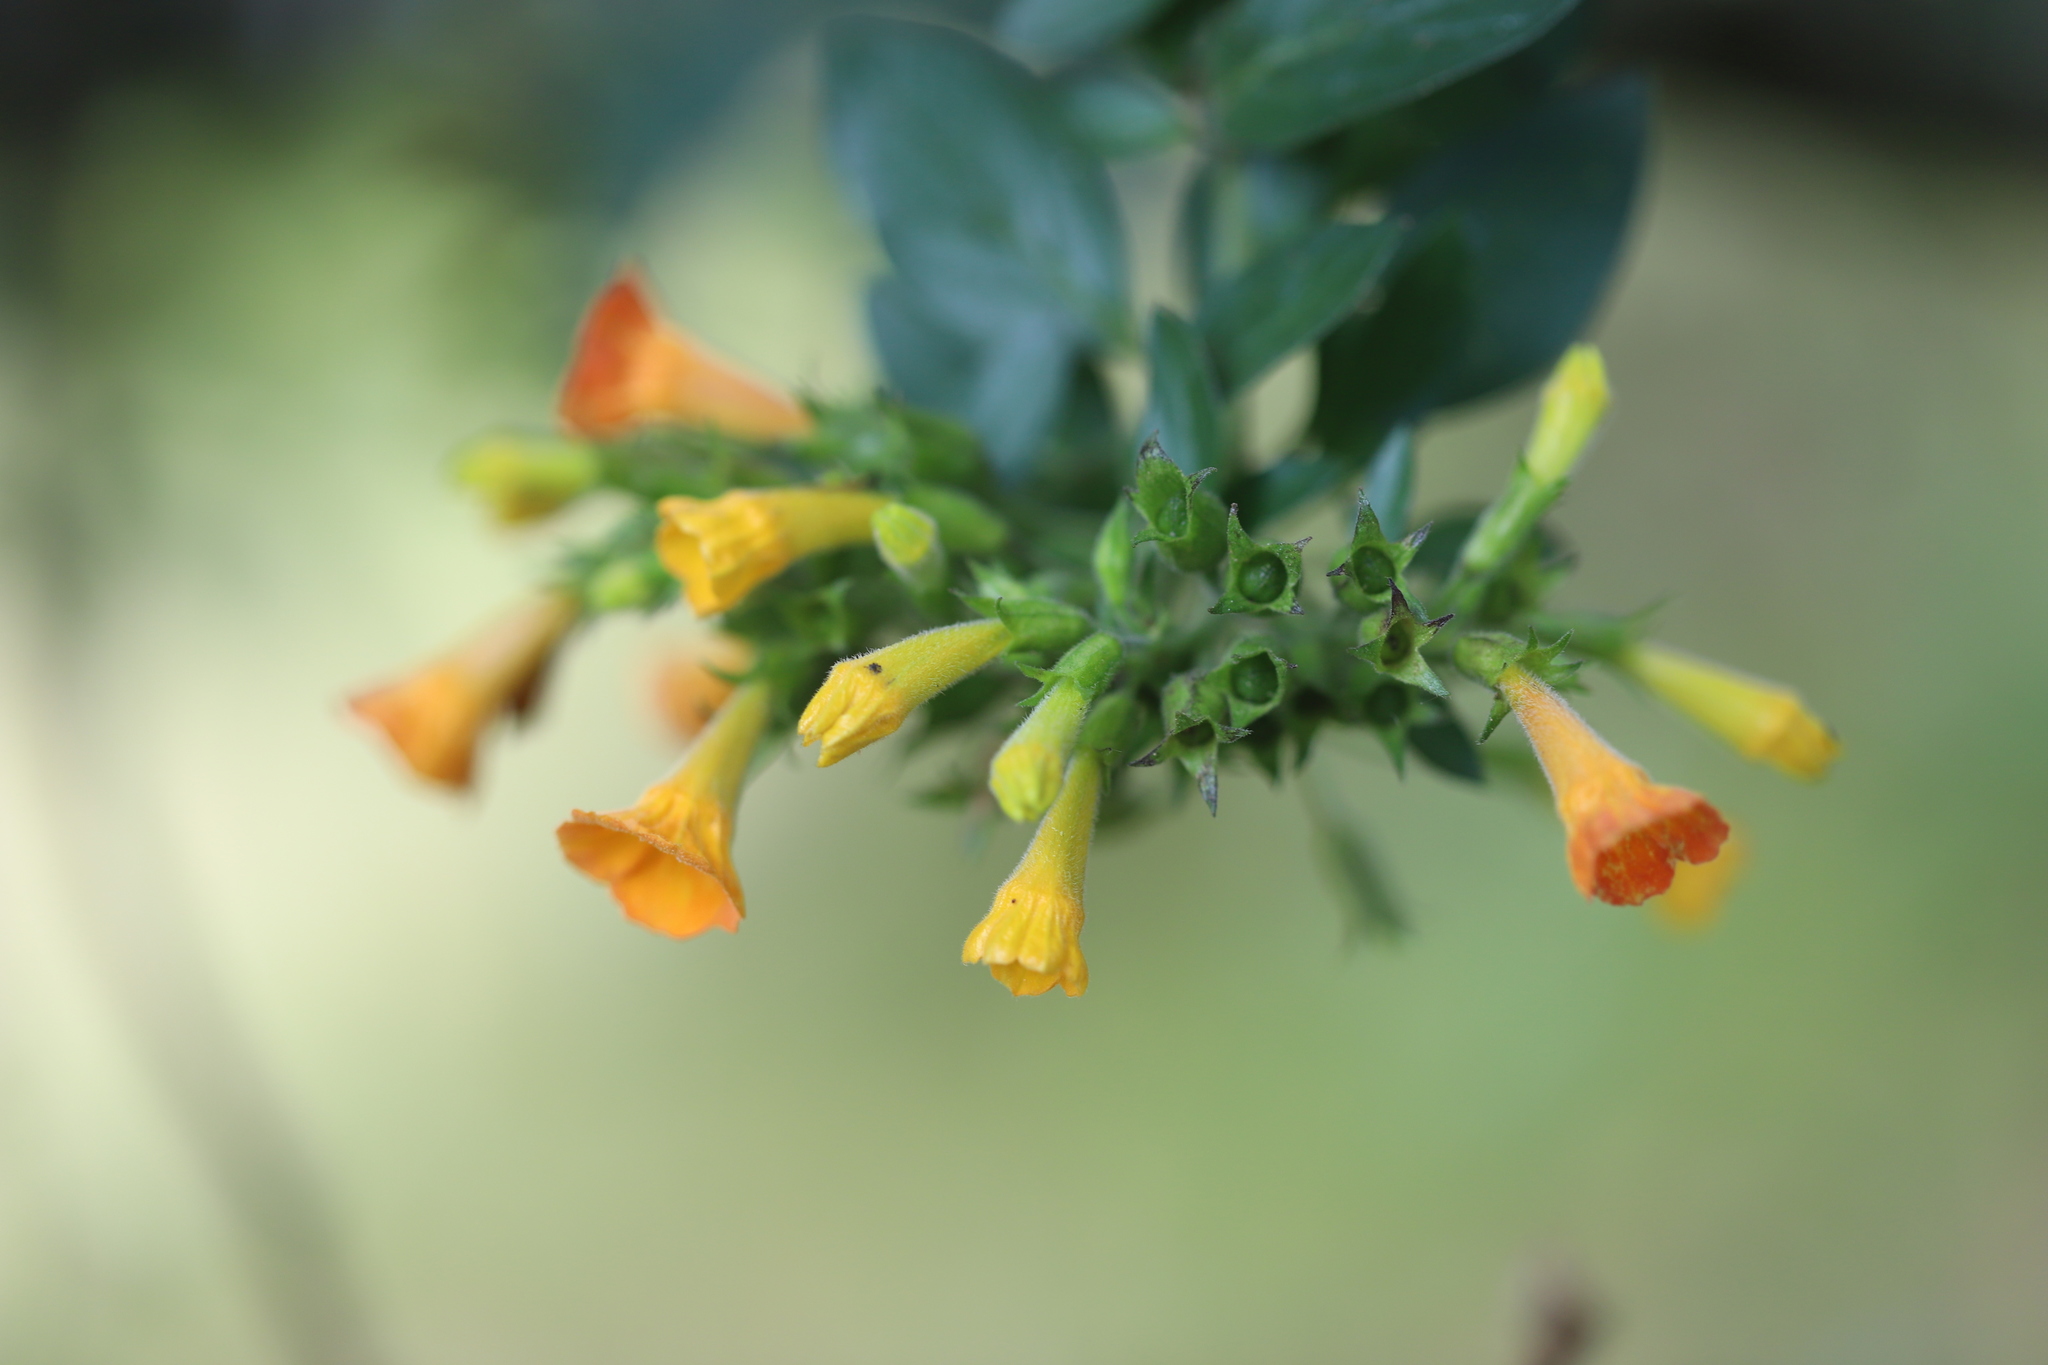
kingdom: Plantae
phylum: Tracheophyta
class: Magnoliopsida
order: Solanales
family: Solanaceae
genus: Streptosolen
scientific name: Streptosolen jamesonii
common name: Marmalade bush
